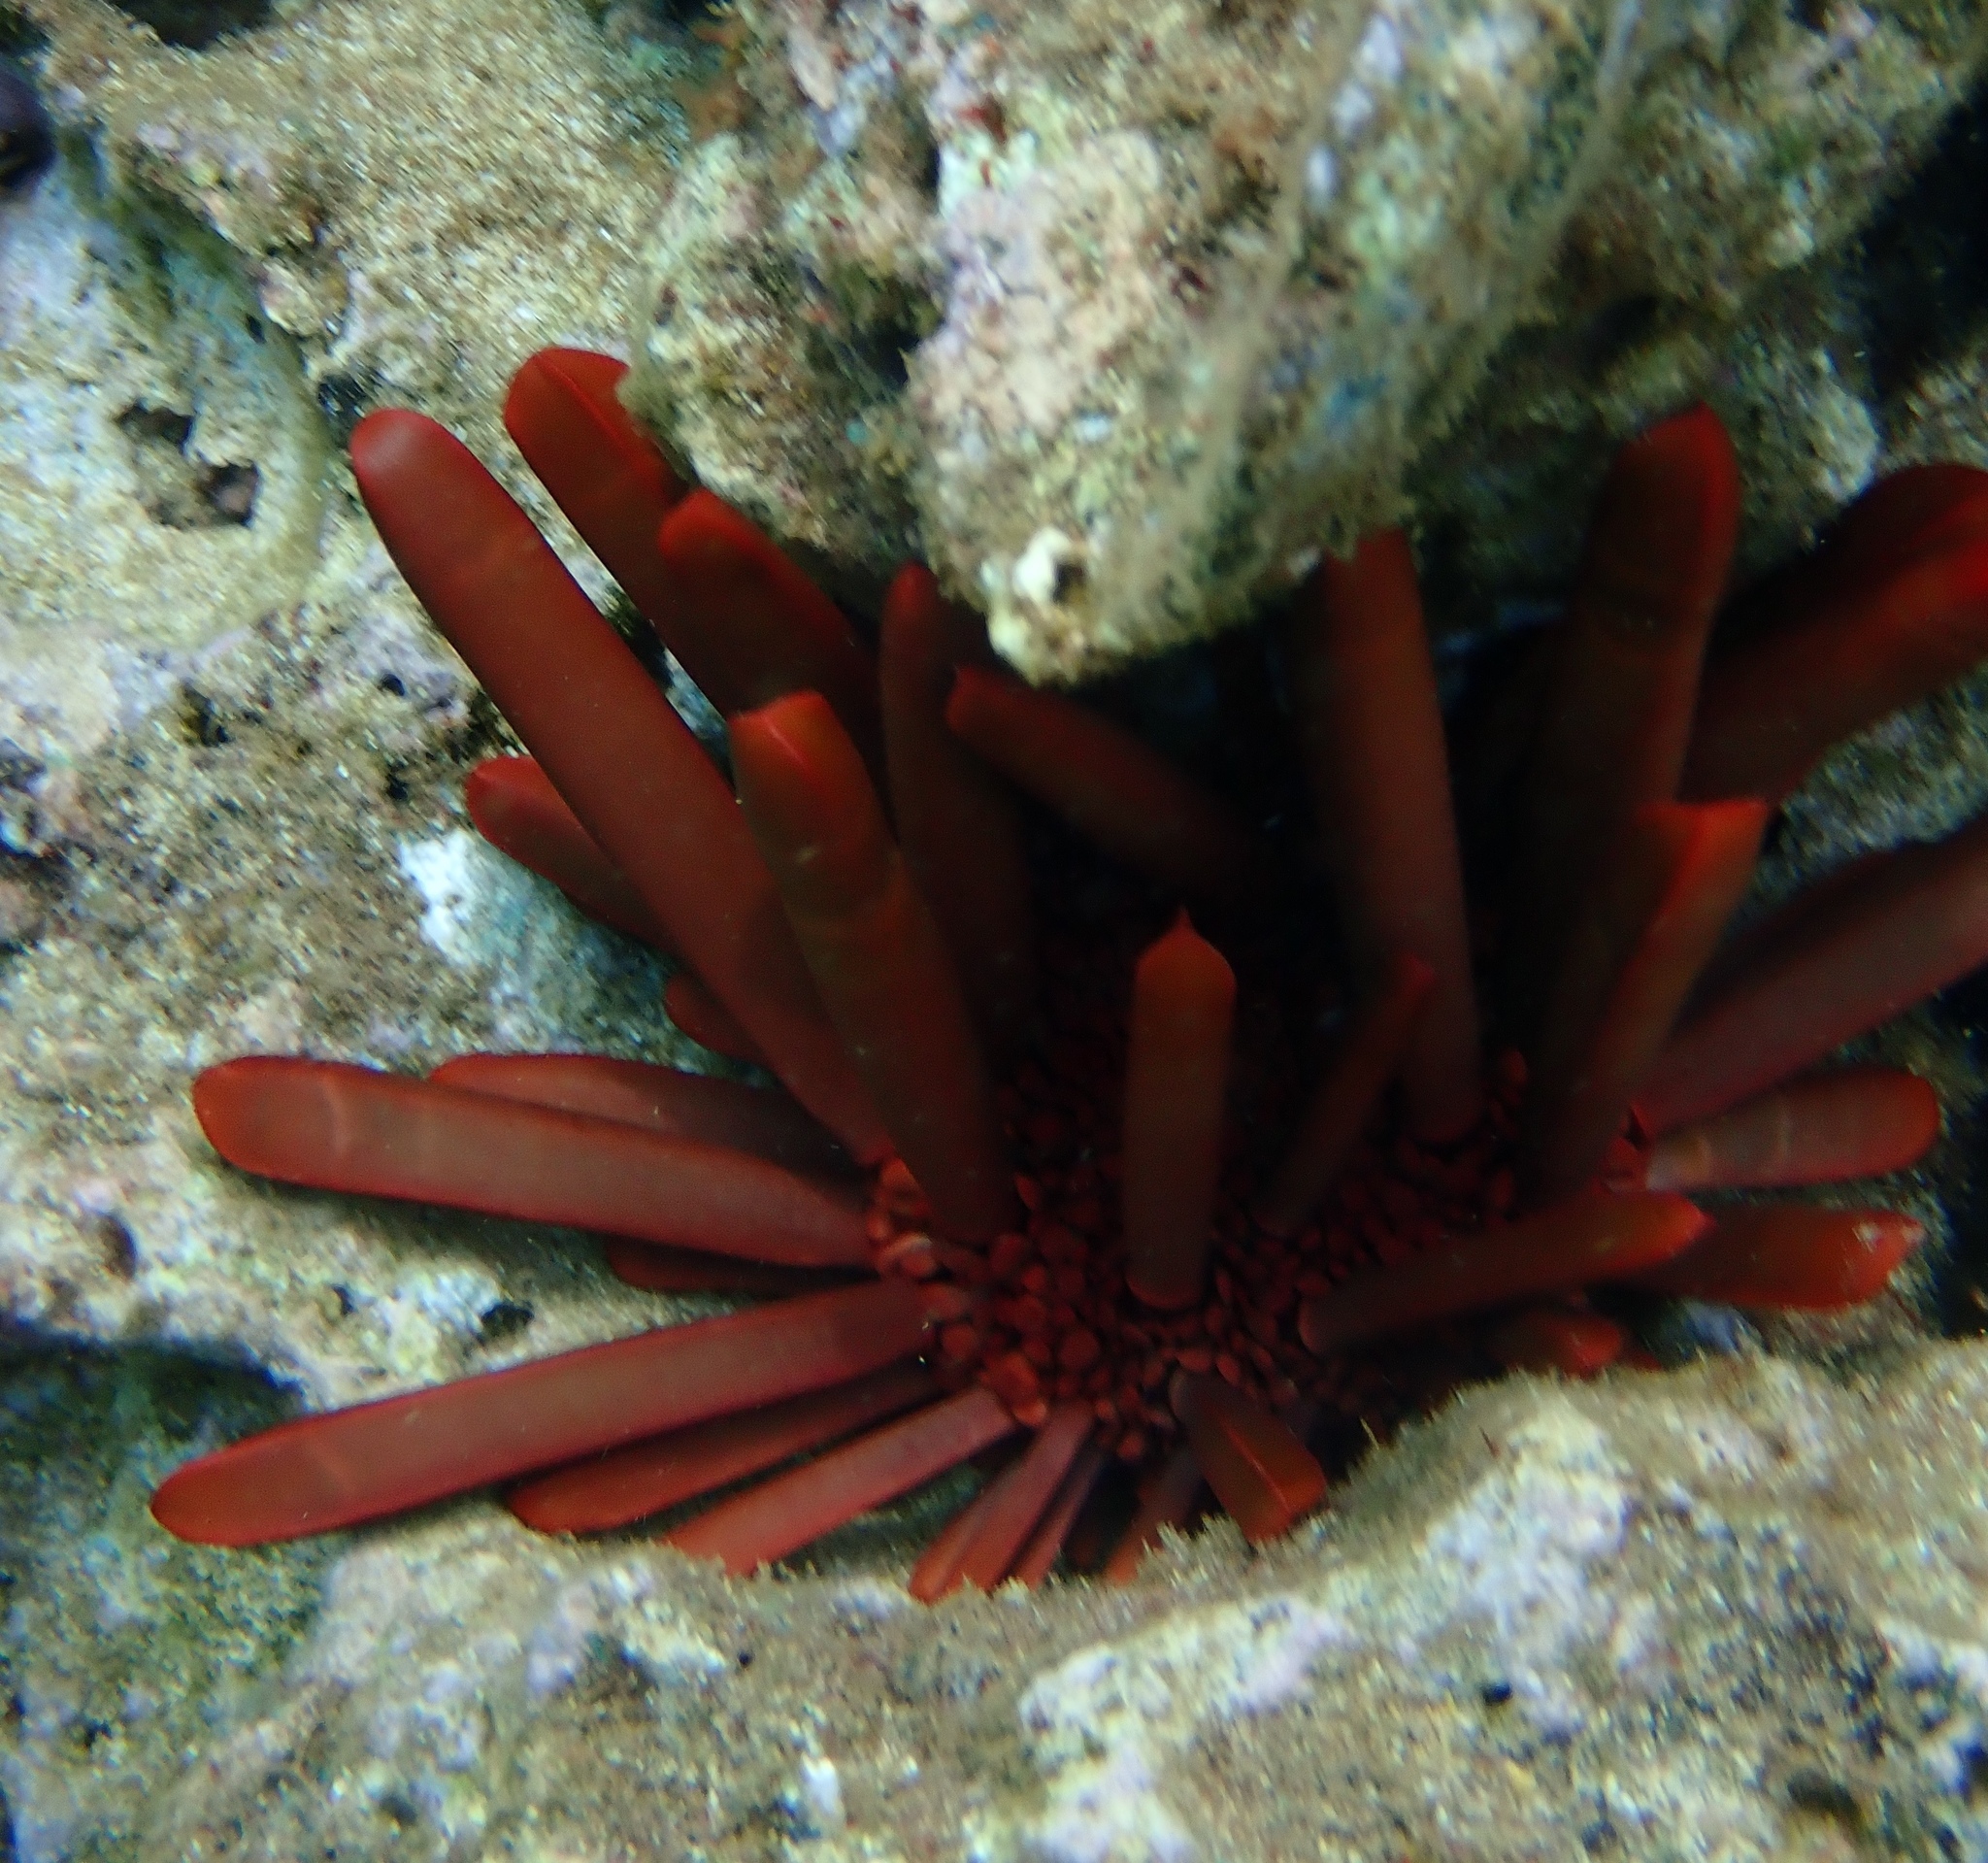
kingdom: Animalia
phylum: Echinodermata
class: Echinoidea
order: Camarodonta
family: Echinometridae
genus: Heterocentrotus
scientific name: Heterocentrotus mamillatus
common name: Slate pencil urchin
